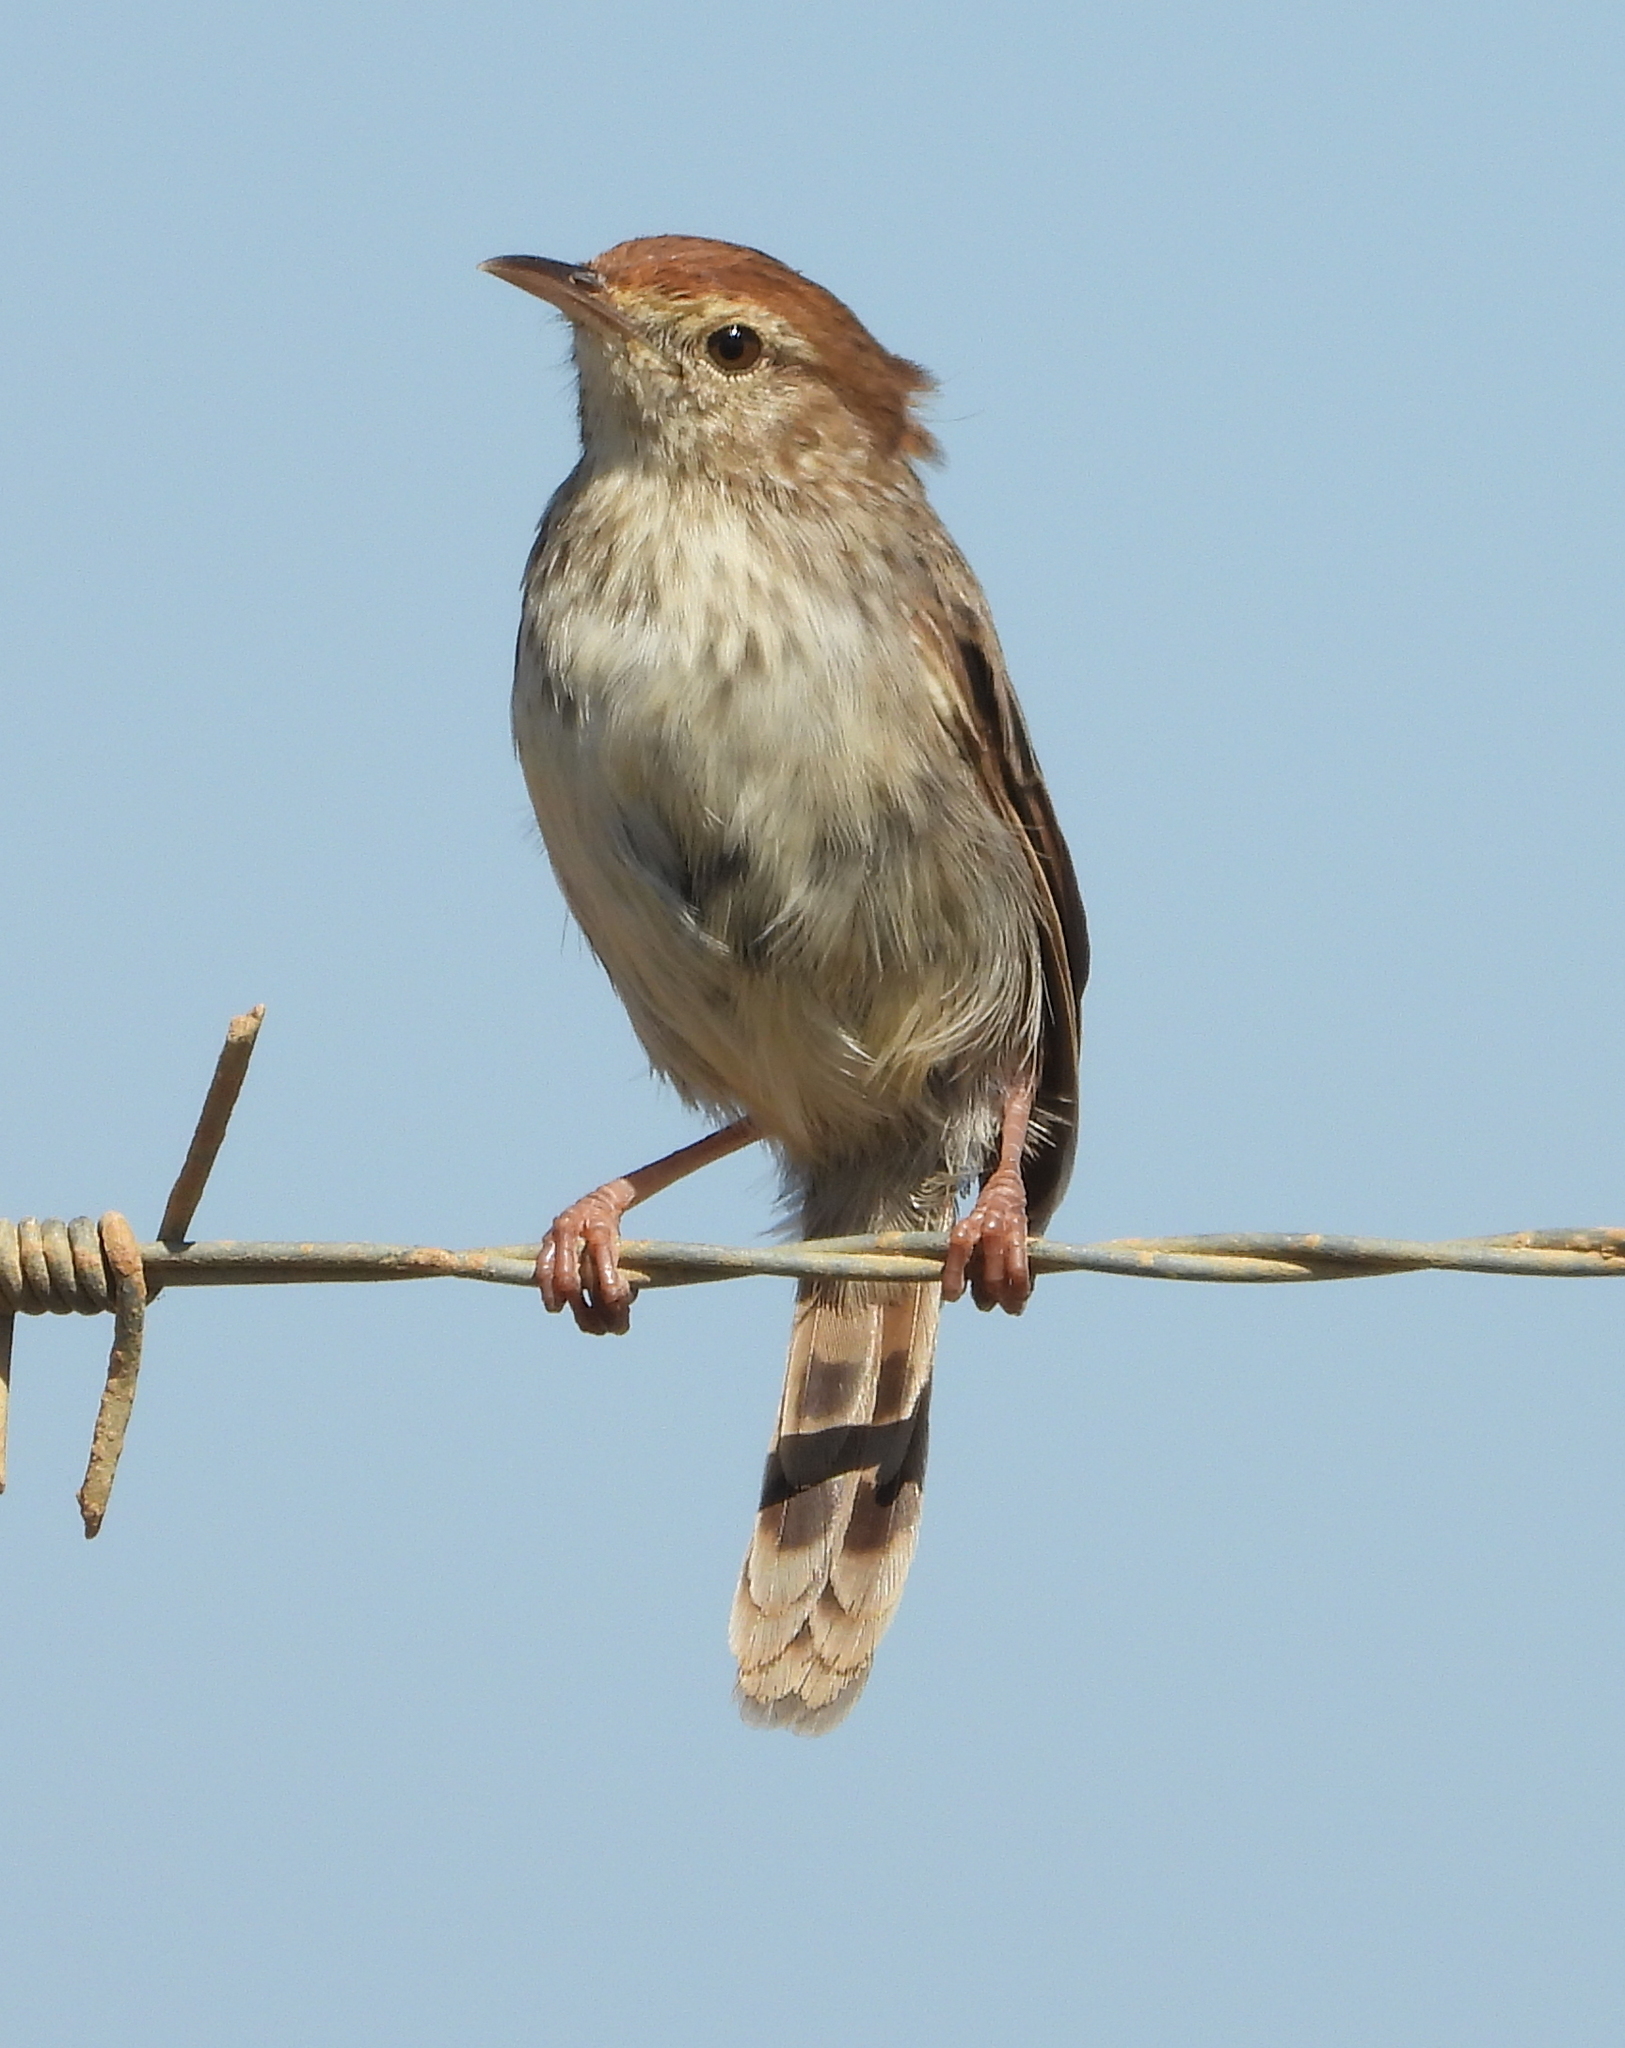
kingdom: Animalia
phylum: Chordata
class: Aves
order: Passeriformes
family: Cisticolidae
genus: Cisticola
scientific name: Cisticola subruficapilla
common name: Grey-backed cisticola
